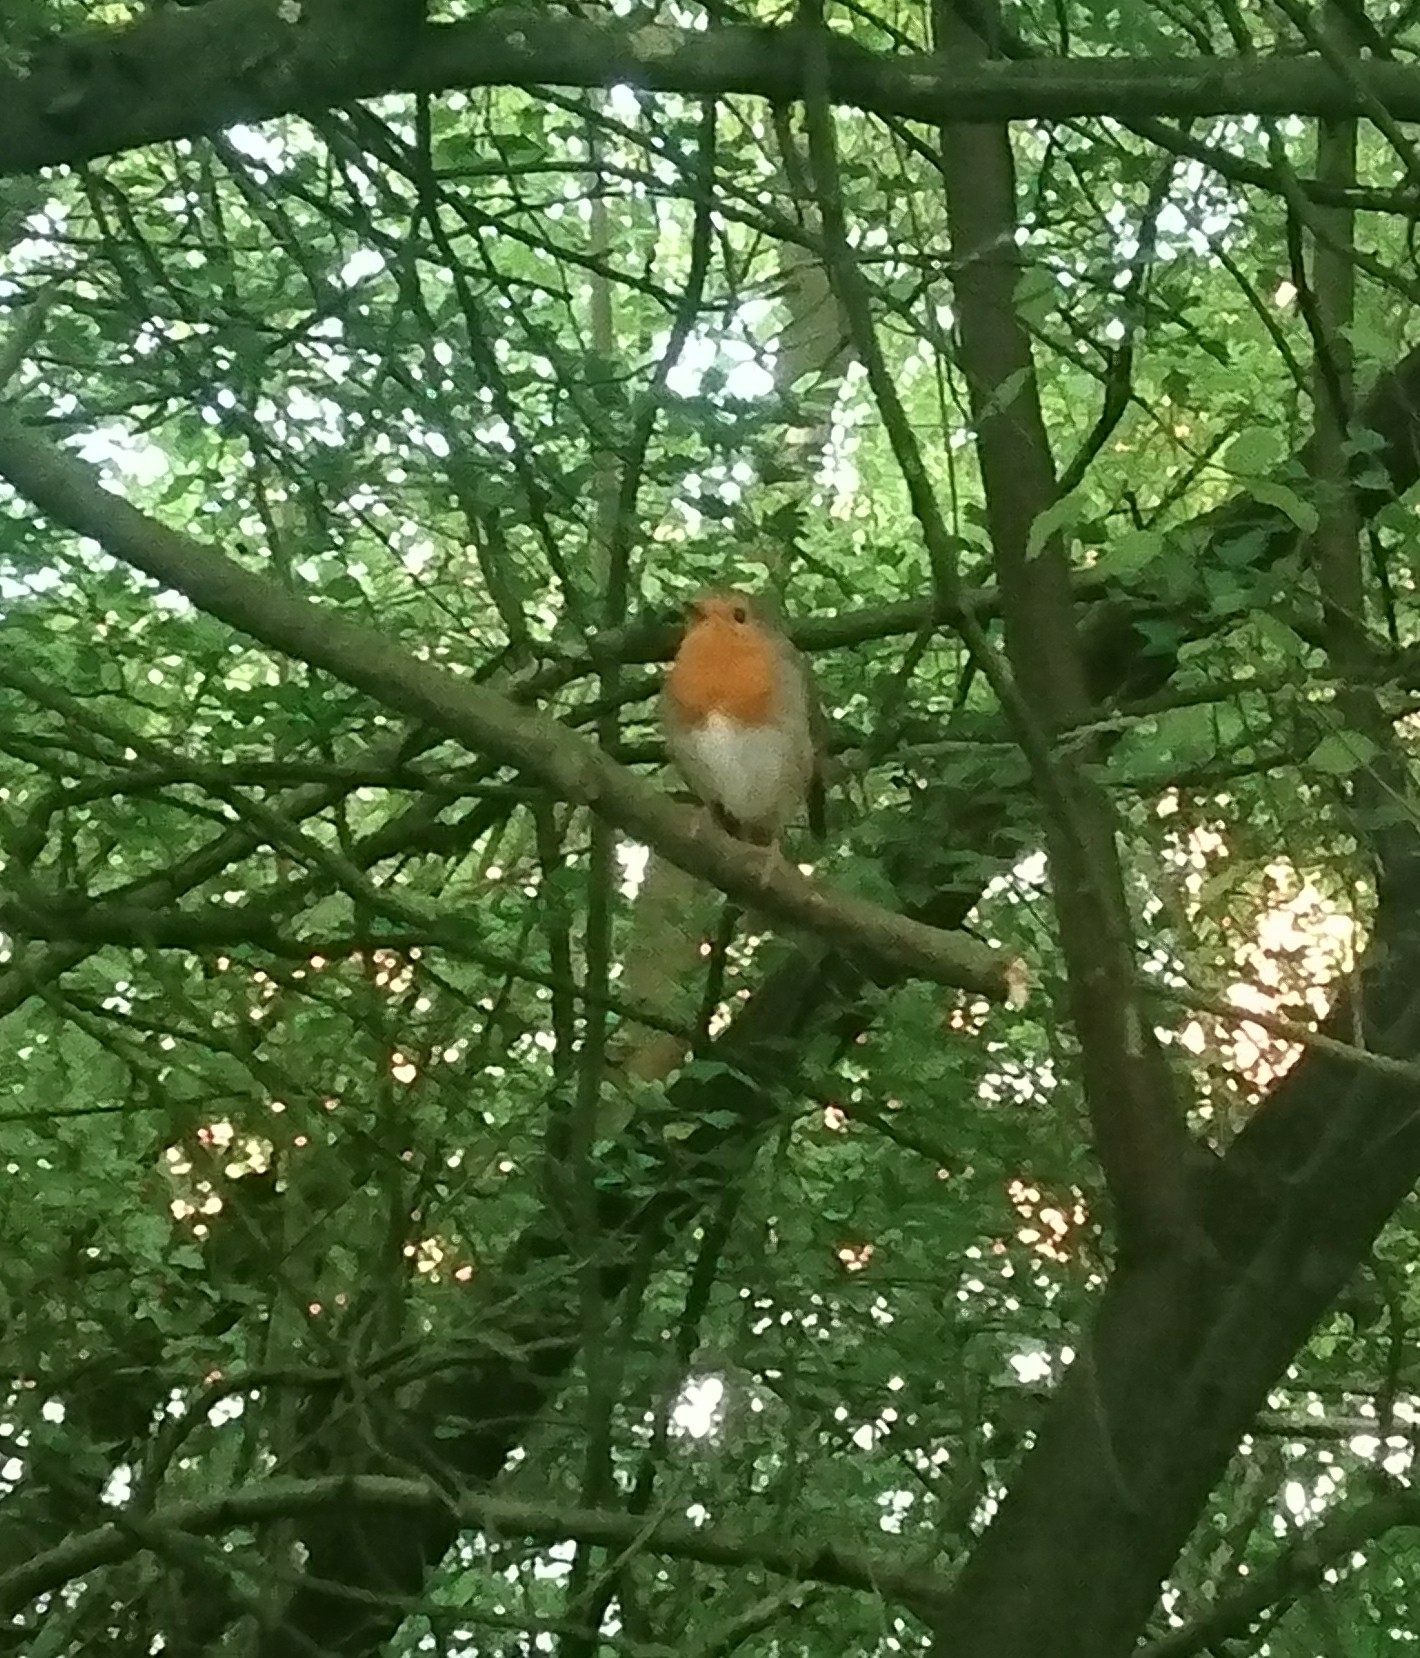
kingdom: Animalia
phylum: Chordata
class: Aves
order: Passeriformes
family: Muscicapidae
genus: Erithacus
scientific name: Erithacus rubecula
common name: European robin
